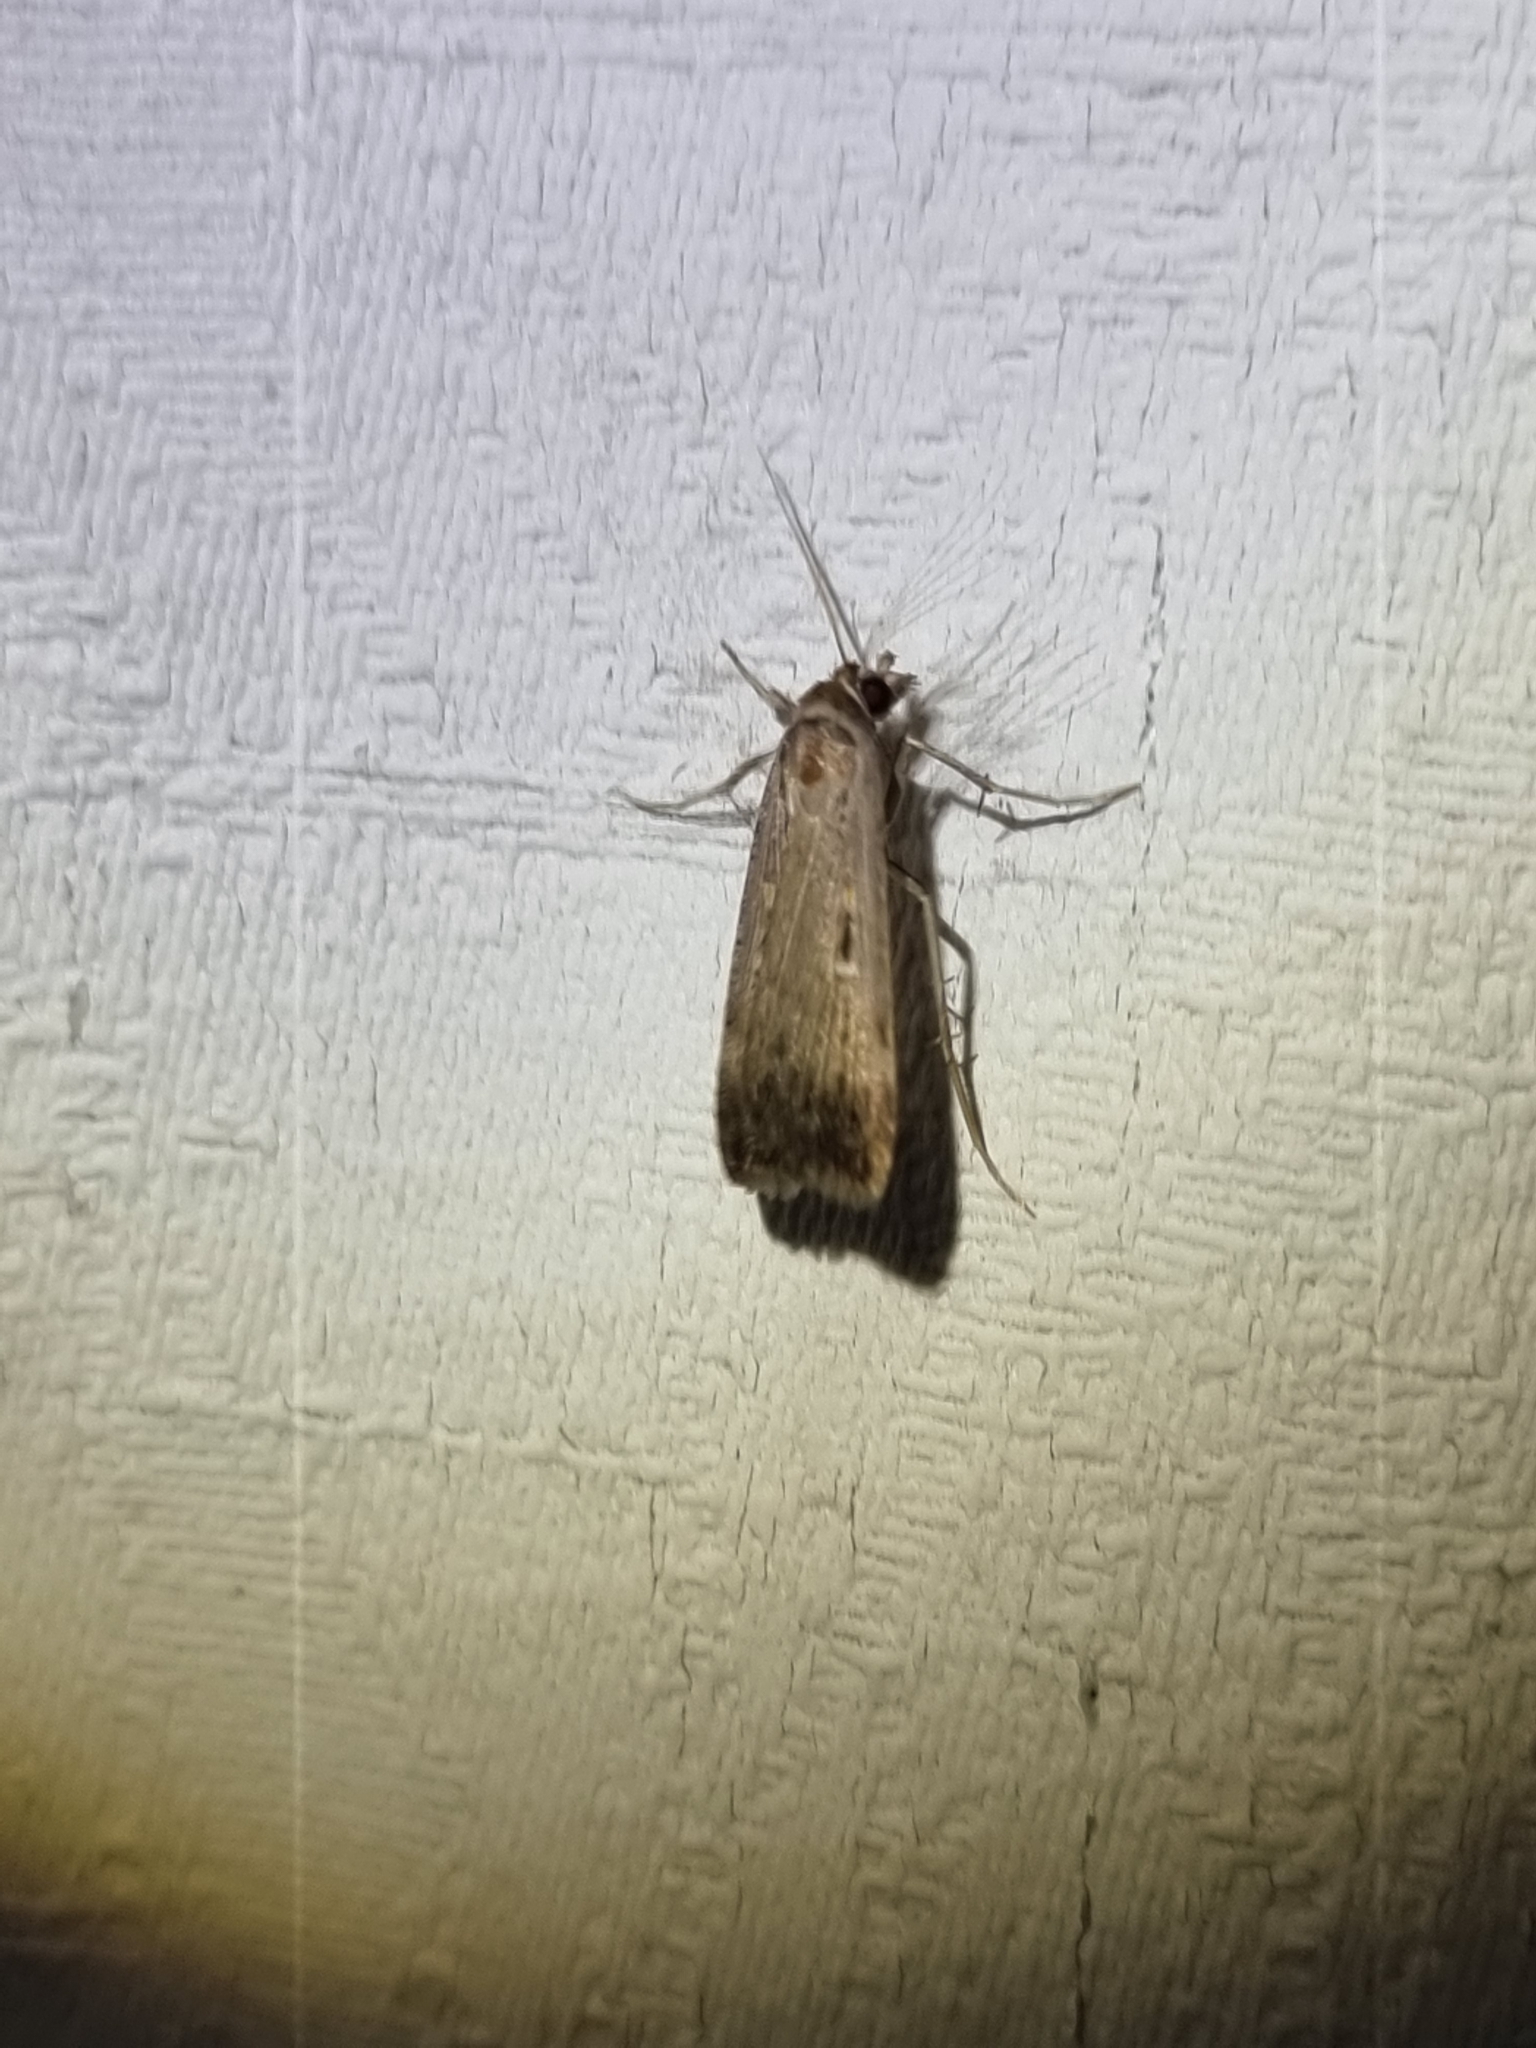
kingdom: Animalia
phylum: Arthropoda
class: Insecta
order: Lepidoptera
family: Noctuidae
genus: Tathorhynchus
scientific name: Tathorhynchus fallax
